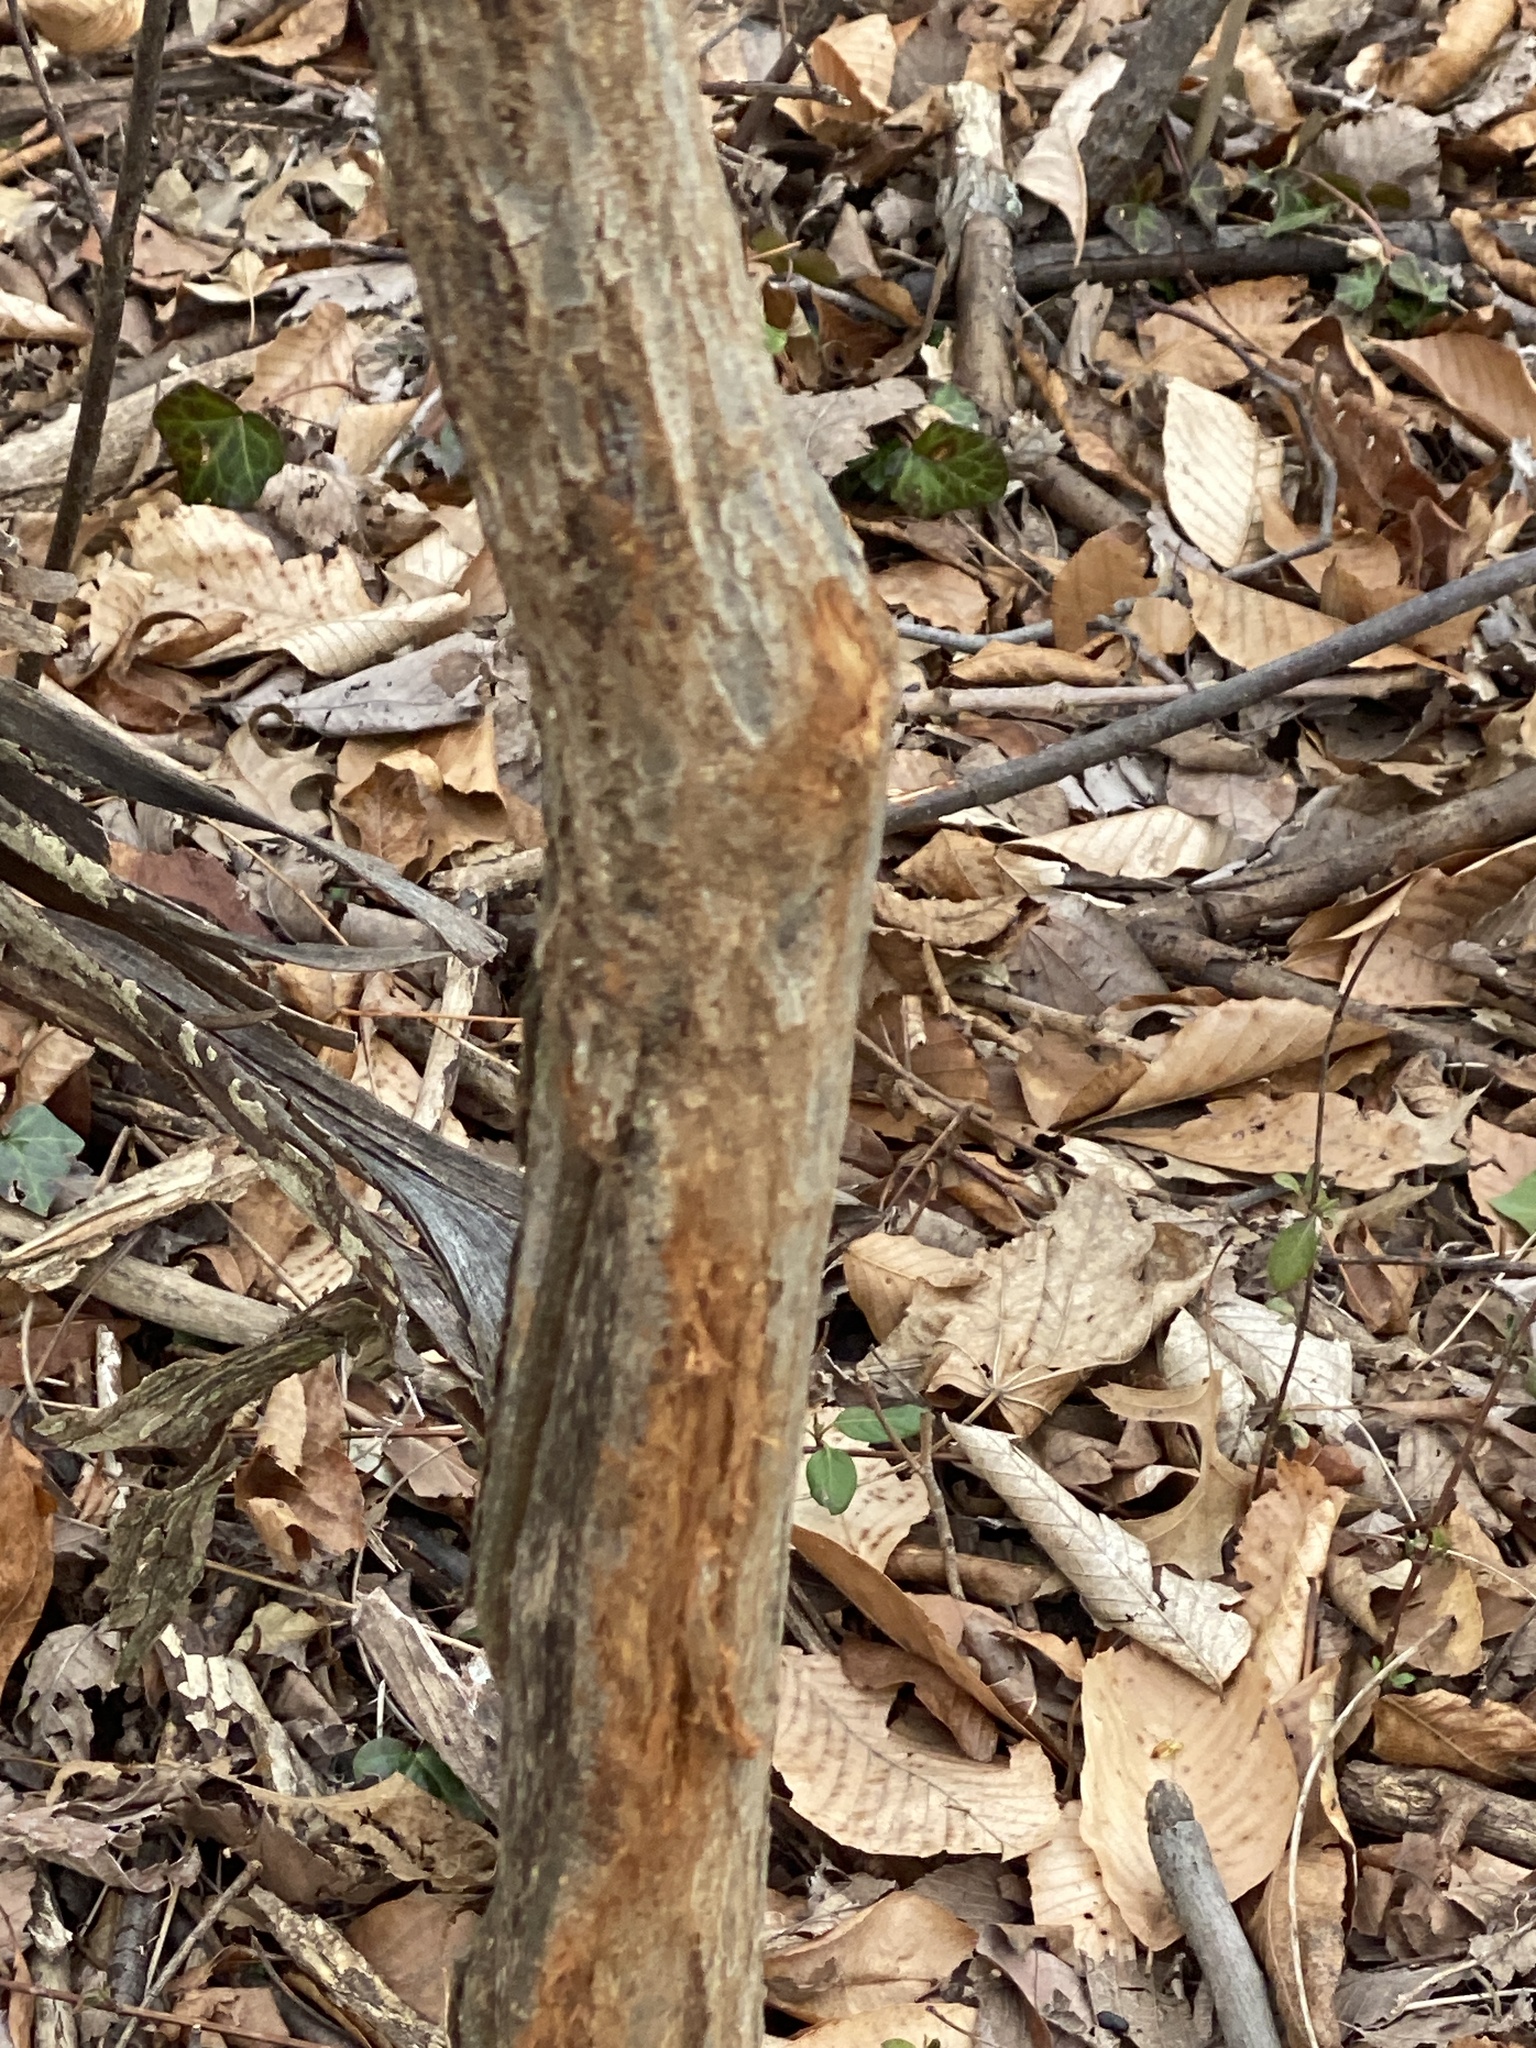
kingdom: Animalia
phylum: Chordata
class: Mammalia
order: Artiodactyla
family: Cervidae
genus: Odocoileus
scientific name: Odocoileus virginianus
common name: White-tailed deer
